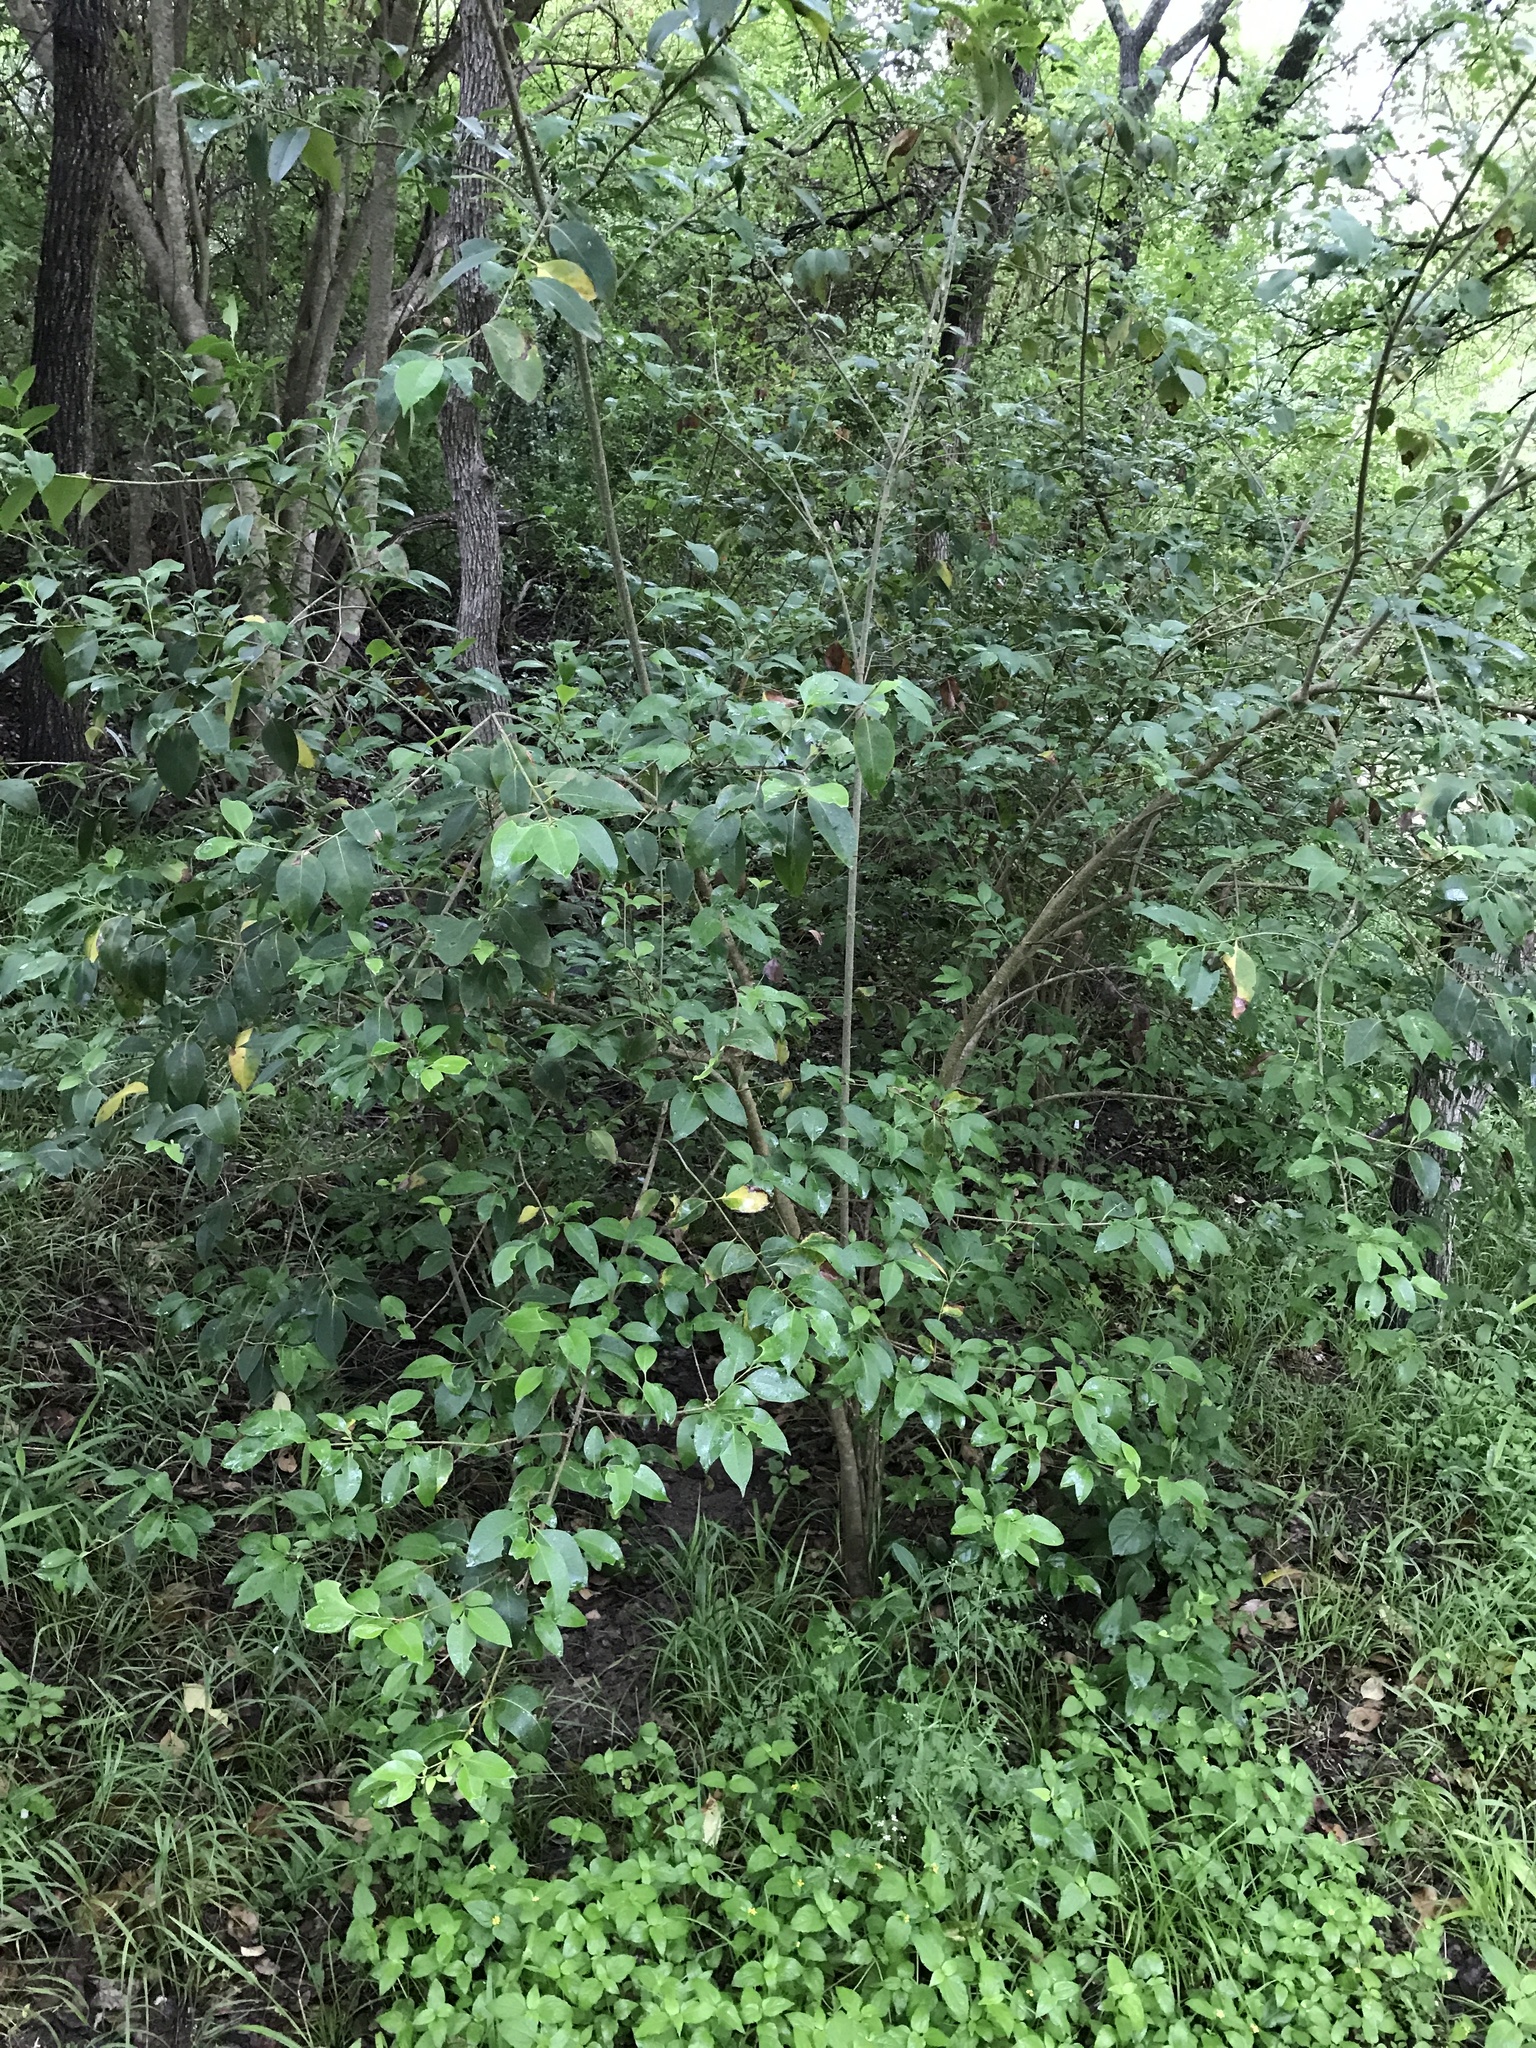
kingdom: Plantae
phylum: Tracheophyta
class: Magnoliopsida
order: Lamiales
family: Oleaceae
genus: Ligustrum
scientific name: Ligustrum lucidum
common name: Glossy privet
